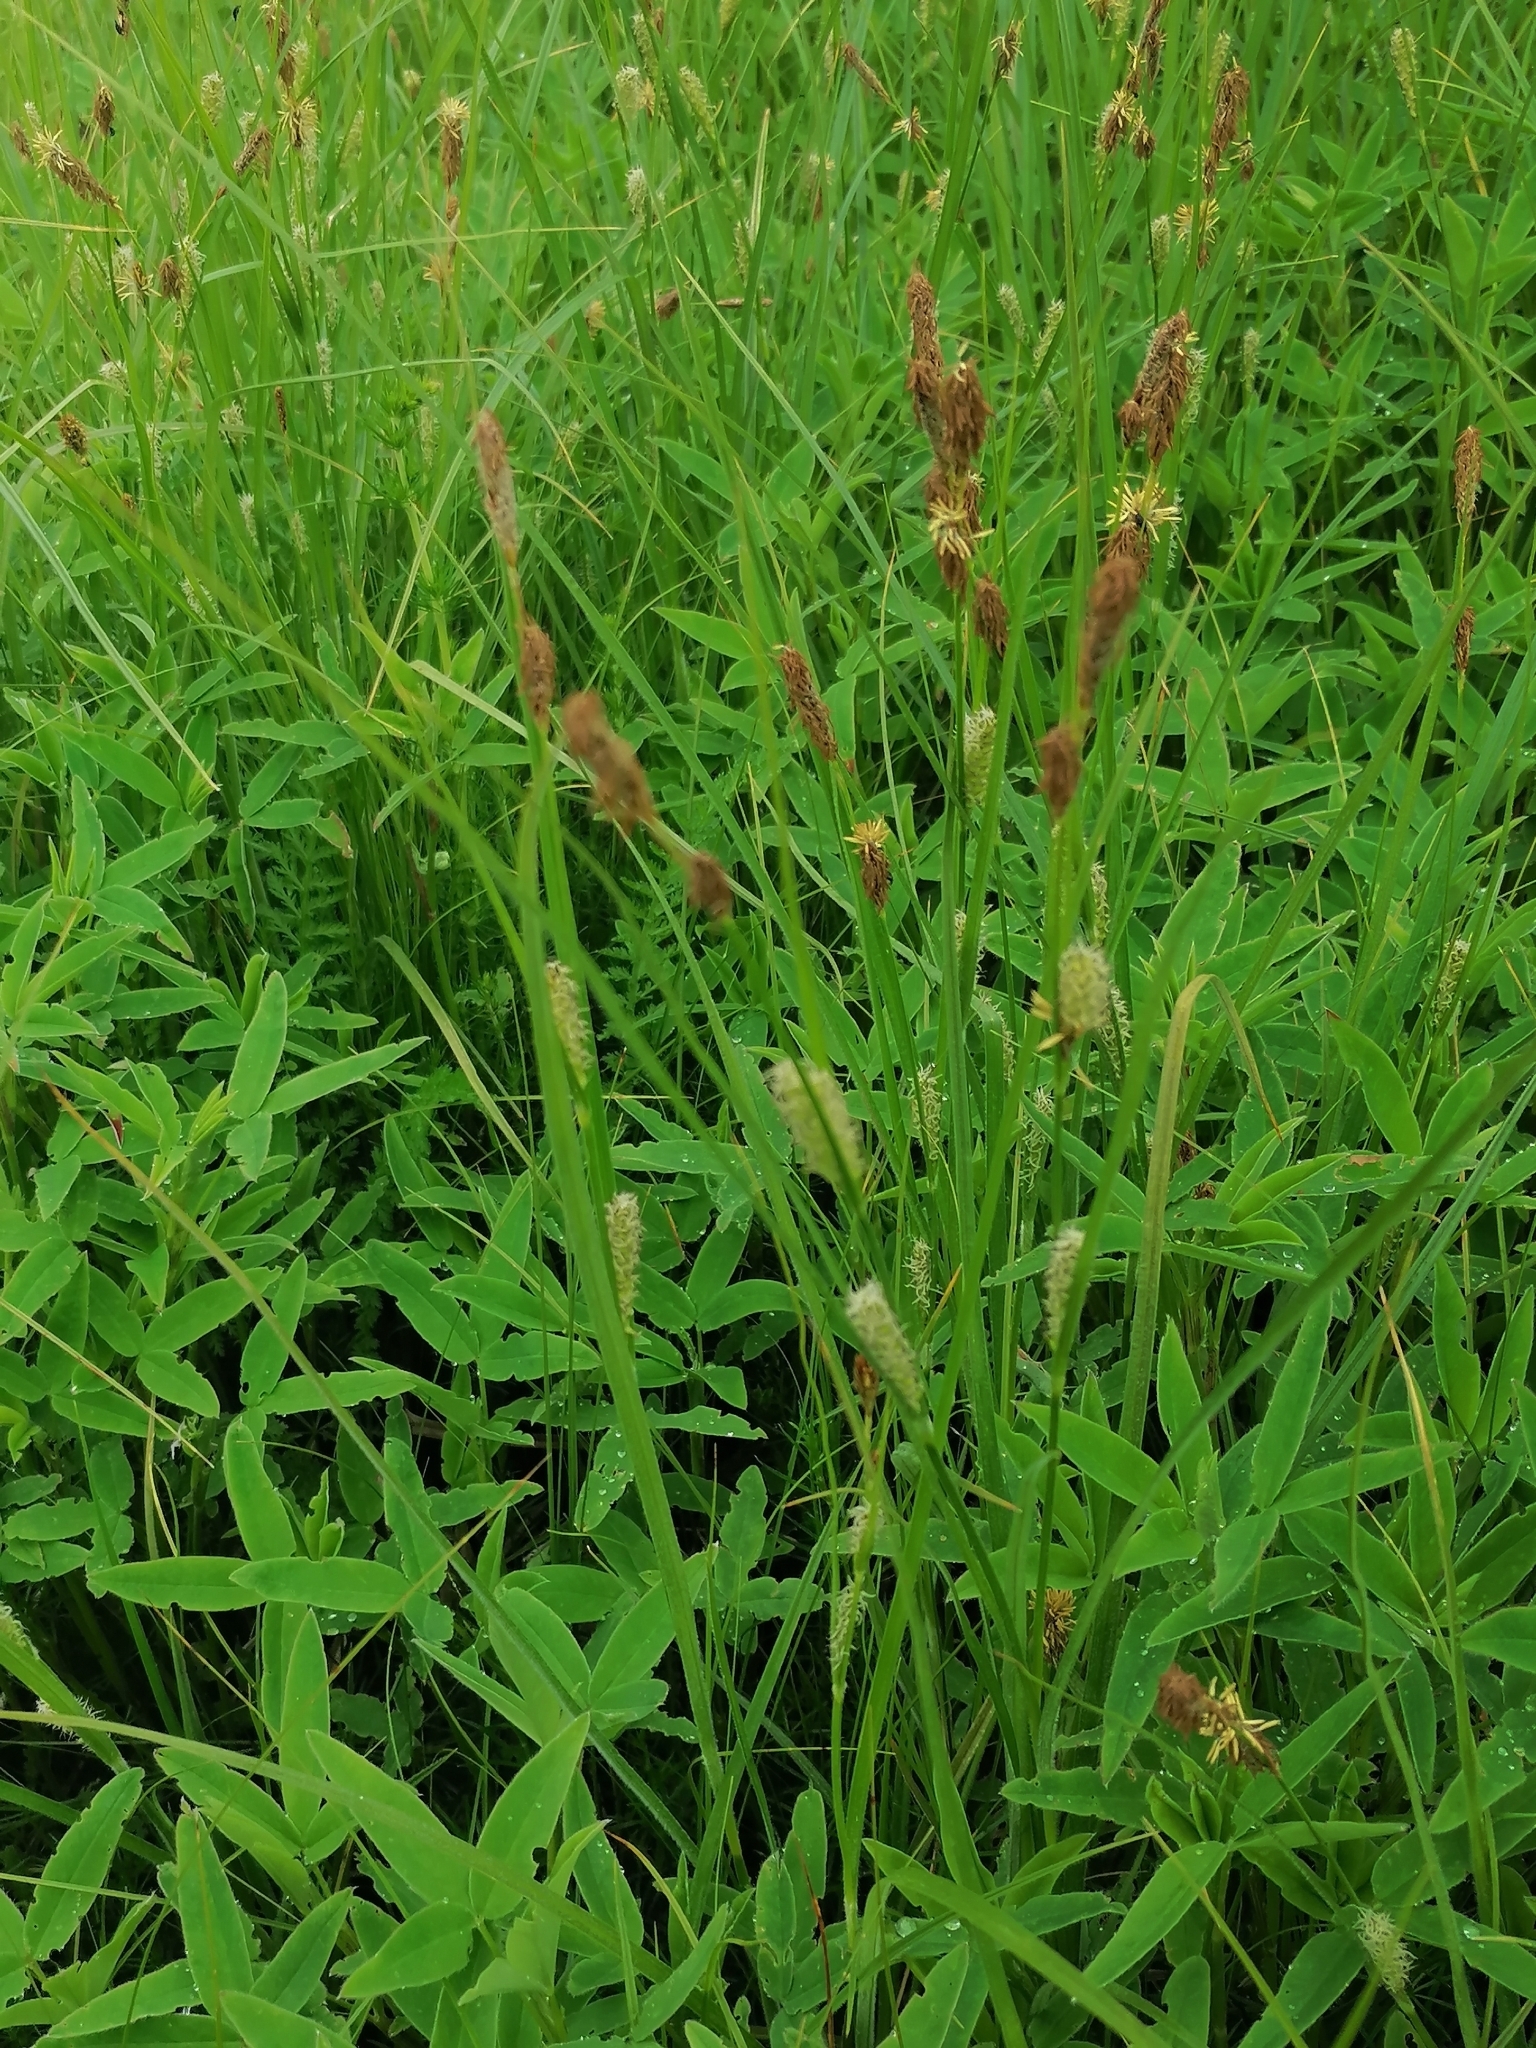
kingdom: Plantae
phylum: Tracheophyta
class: Liliopsida
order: Poales
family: Cyperaceae
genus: Carex
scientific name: Carex hirta
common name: Hairy sedge
